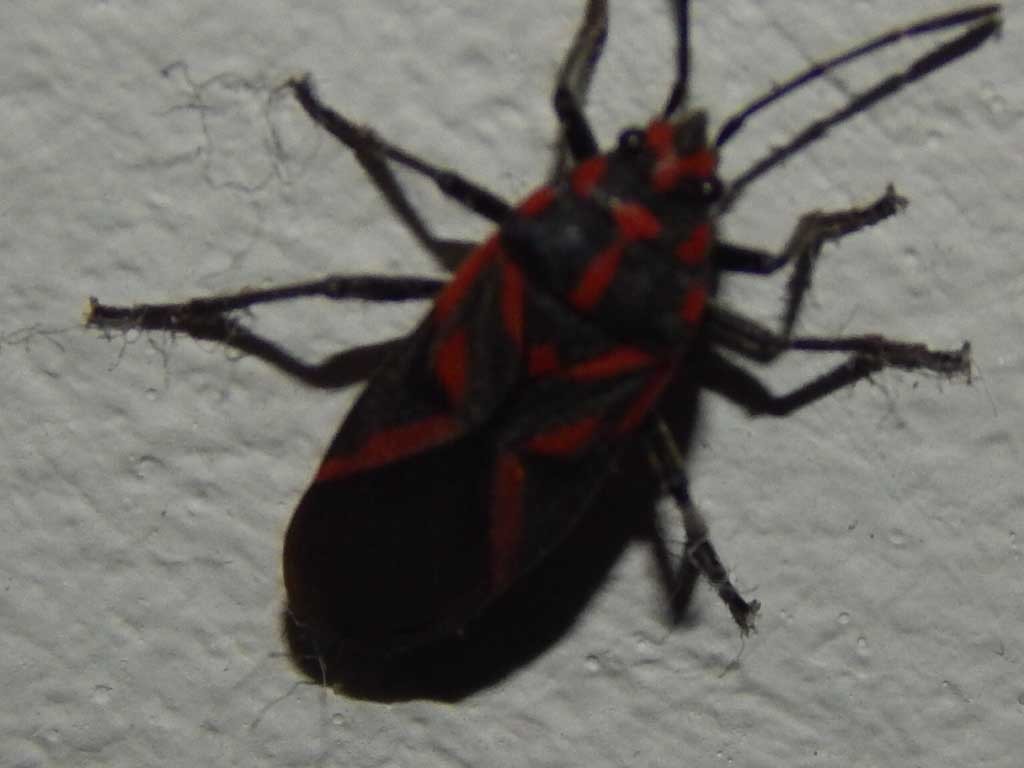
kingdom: Animalia
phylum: Arthropoda
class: Insecta
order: Hemiptera
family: Lygaeidae
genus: Spilostethus
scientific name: Spilostethus furcula
